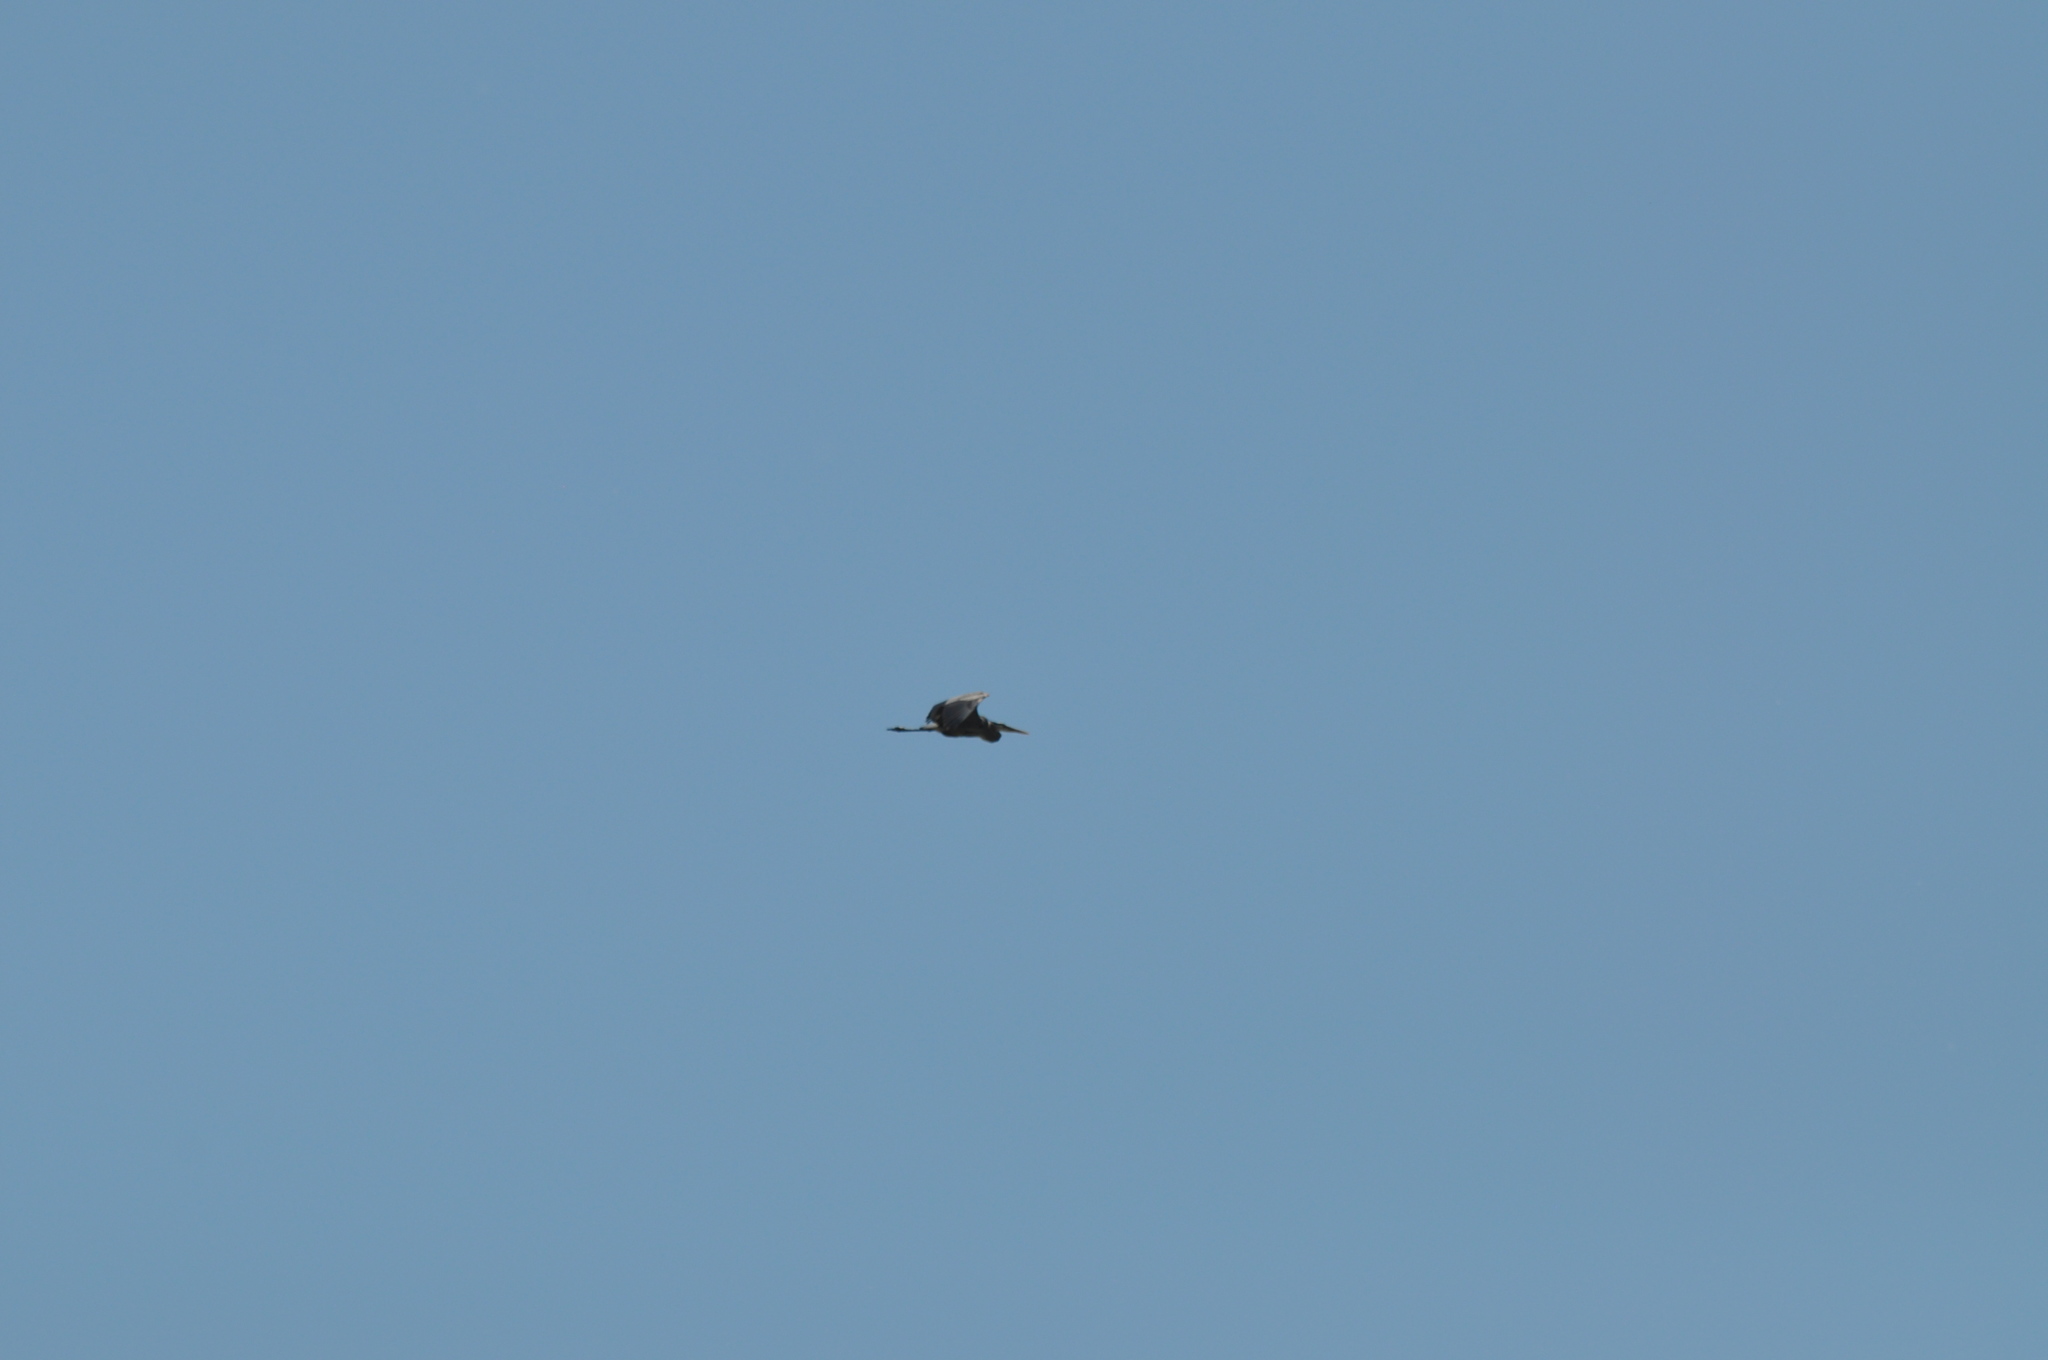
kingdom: Animalia
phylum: Chordata
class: Aves
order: Pelecaniformes
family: Ardeidae
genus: Ardea
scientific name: Ardea herodias
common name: Great blue heron
